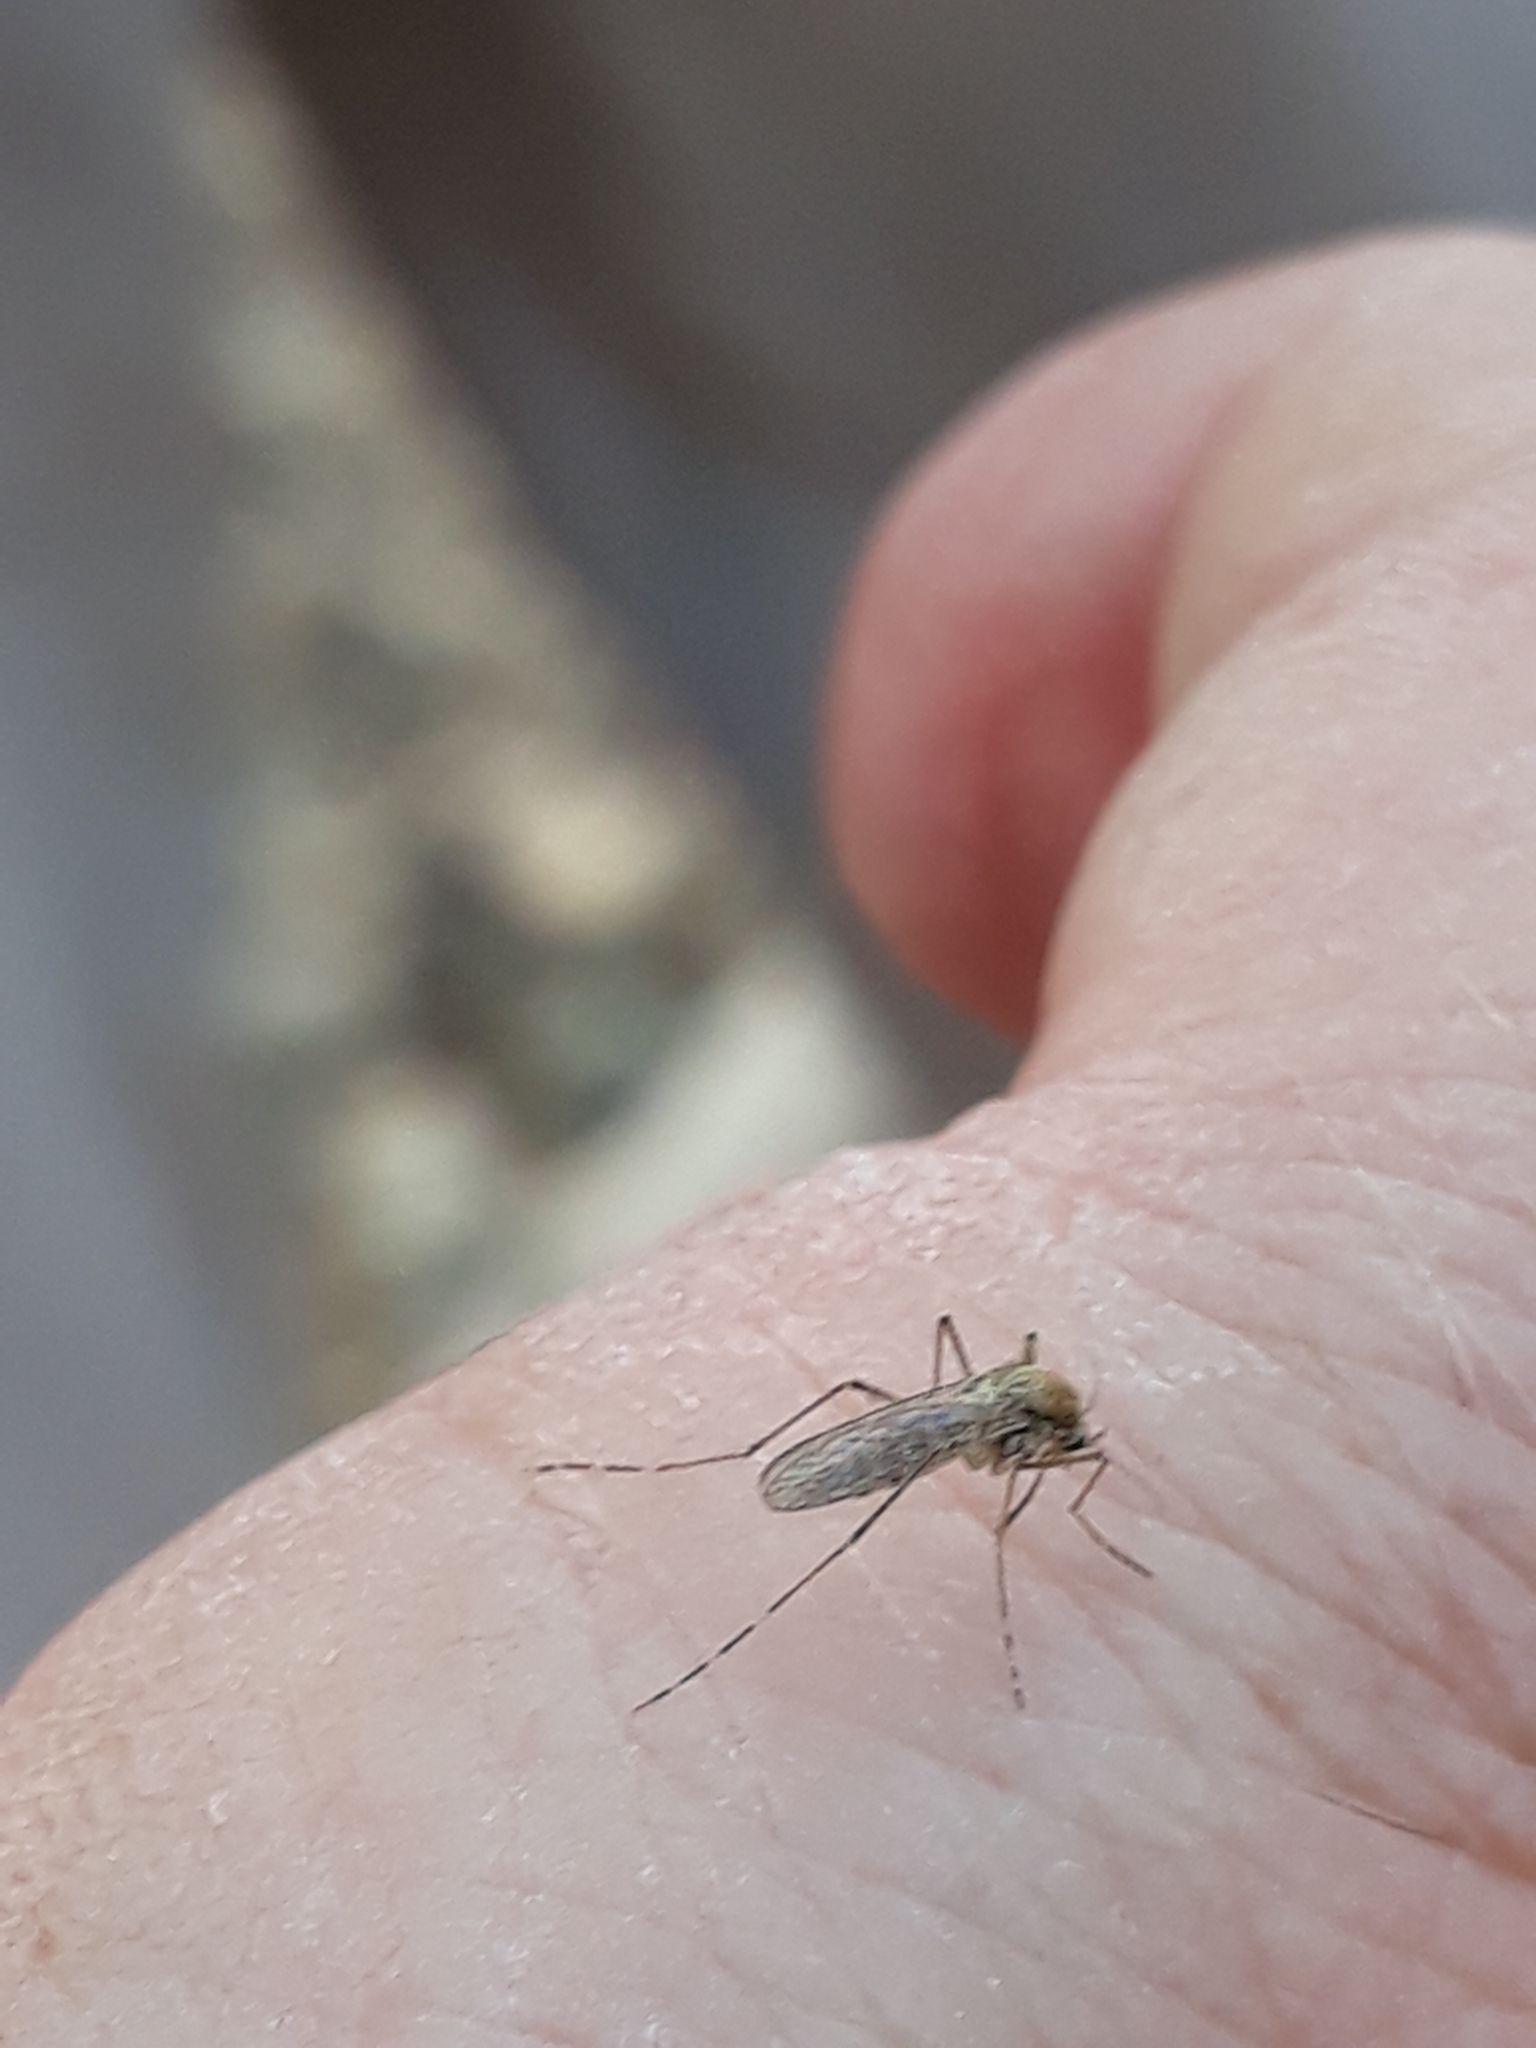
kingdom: Animalia
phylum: Arthropoda
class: Insecta
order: Diptera
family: Culicidae
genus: Aedes
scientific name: Aedes caspius
